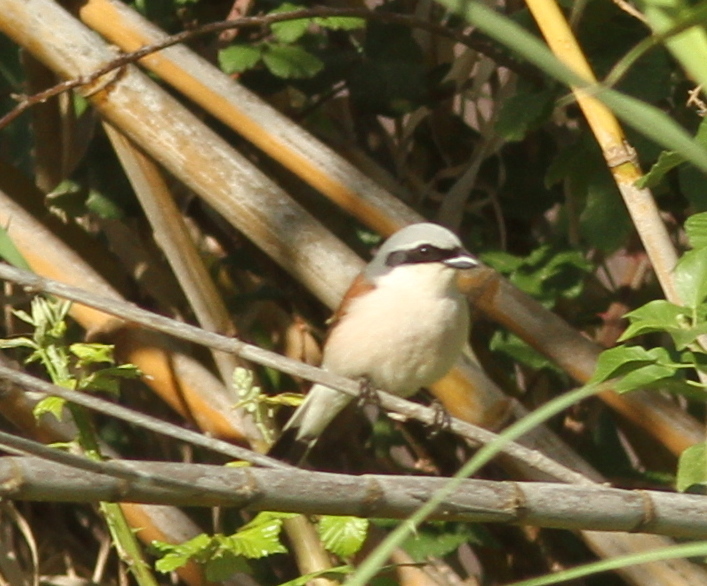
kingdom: Animalia
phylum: Chordata
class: Aves
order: Passeriformes
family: Laniidae
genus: Lanius
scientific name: Lanius collurio
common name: Red-backed shrike
